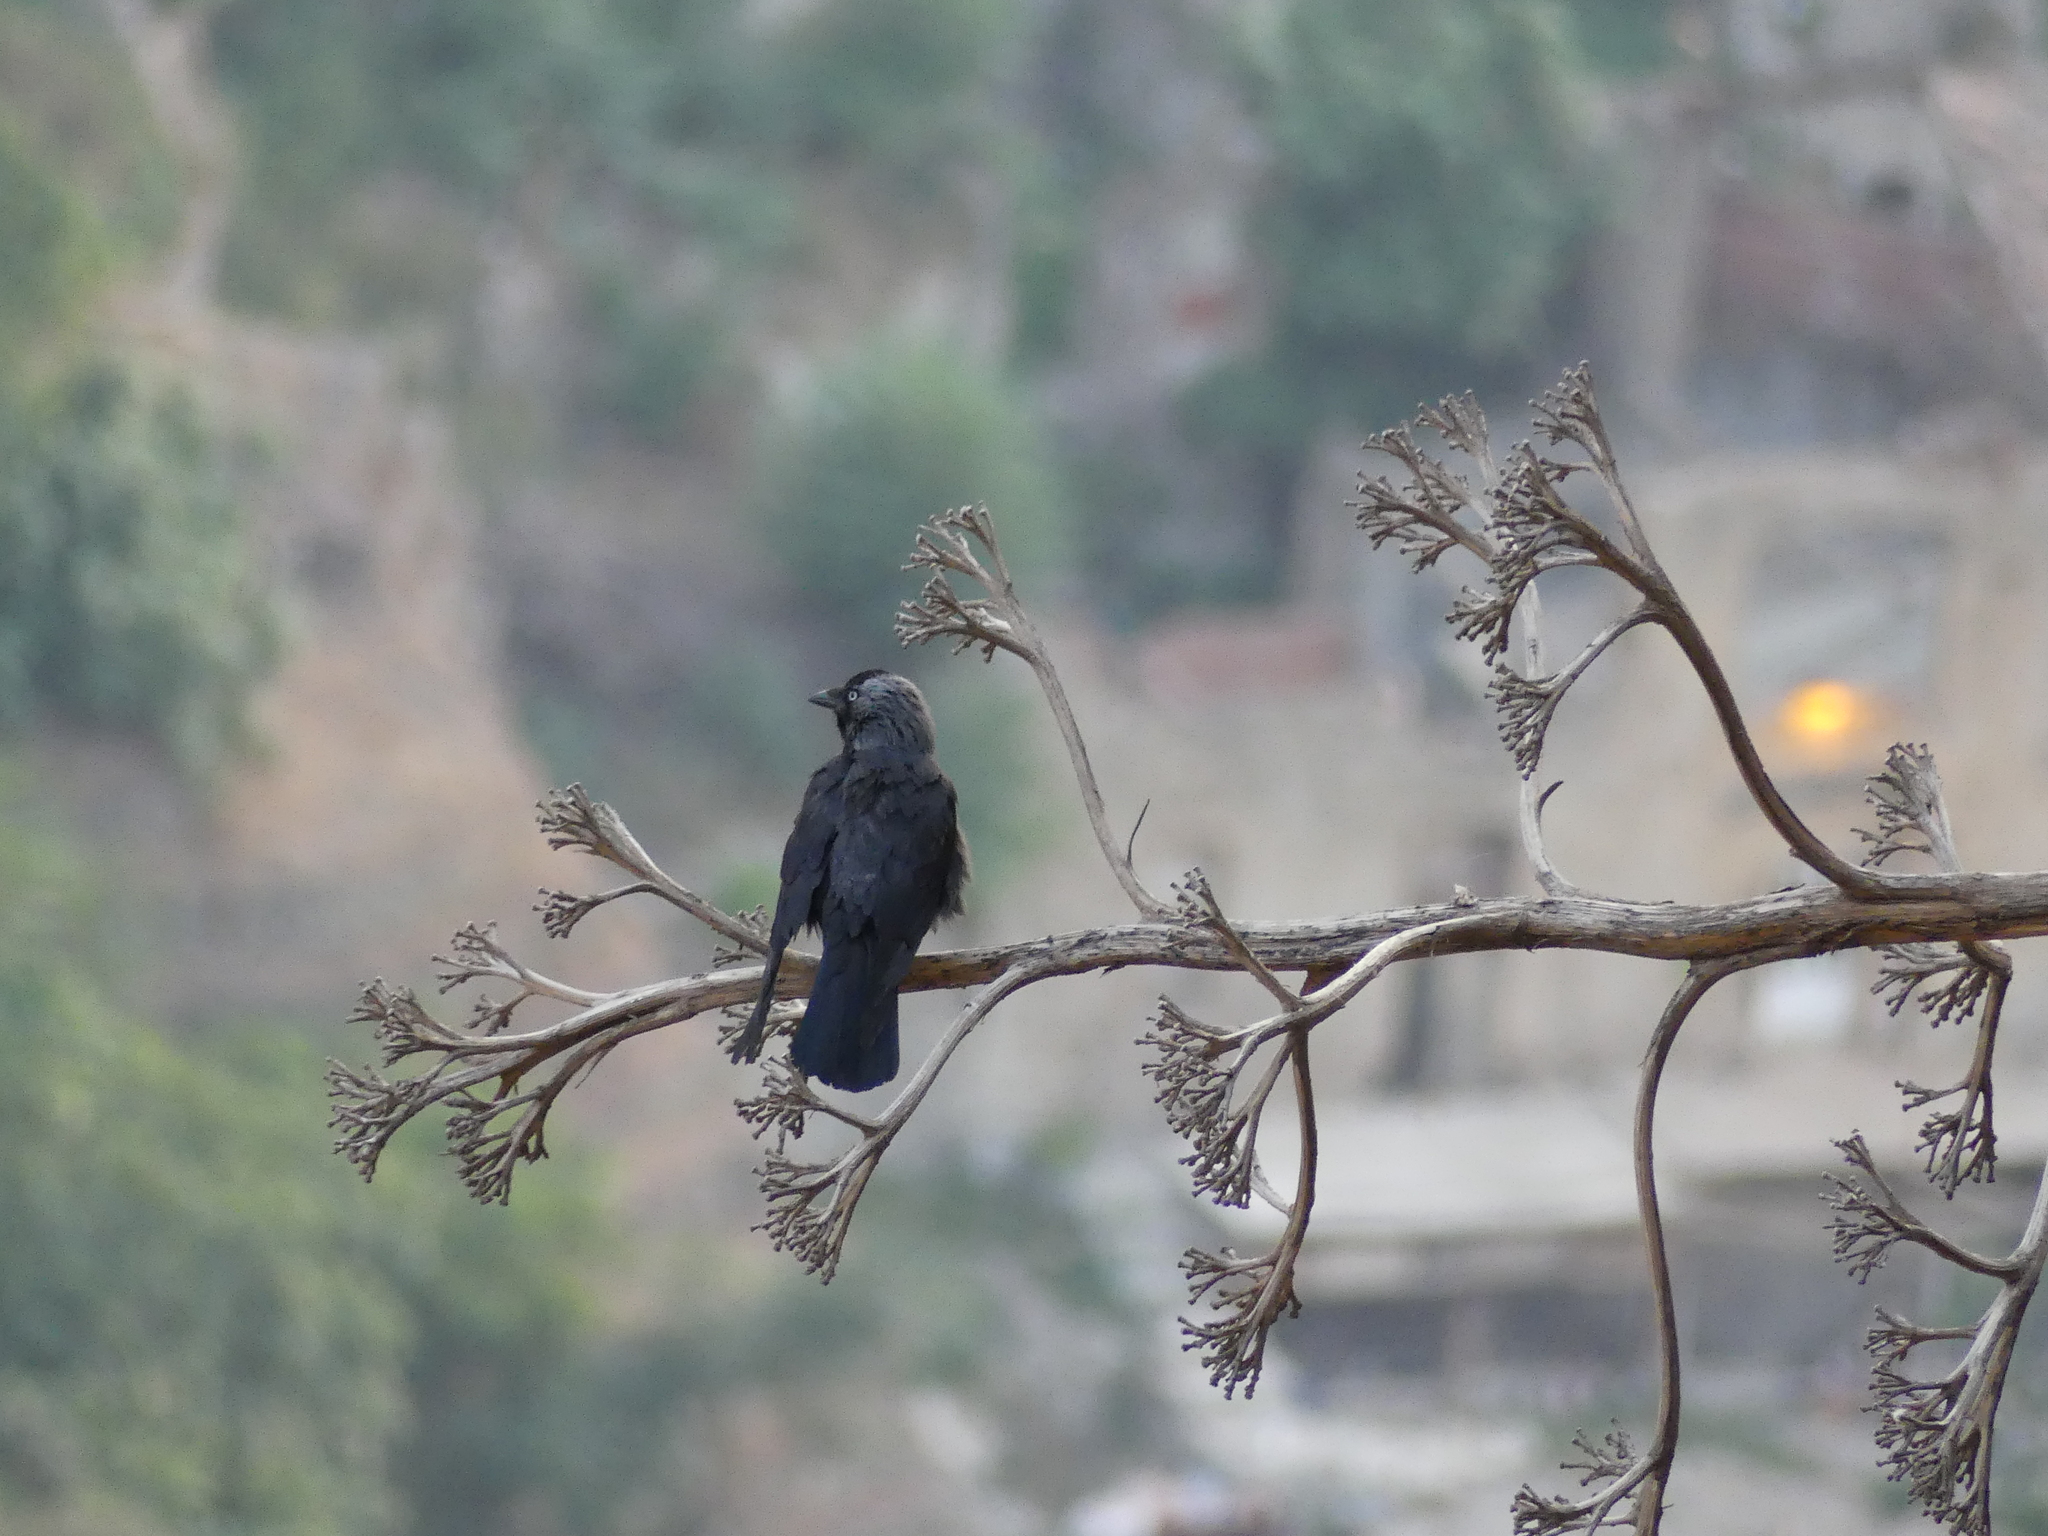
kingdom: Animalia
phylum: Chordata
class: Aves
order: Passeriformes
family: Corvidae
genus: Coloeus
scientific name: Coloeus monedula
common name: Western jackdaw
